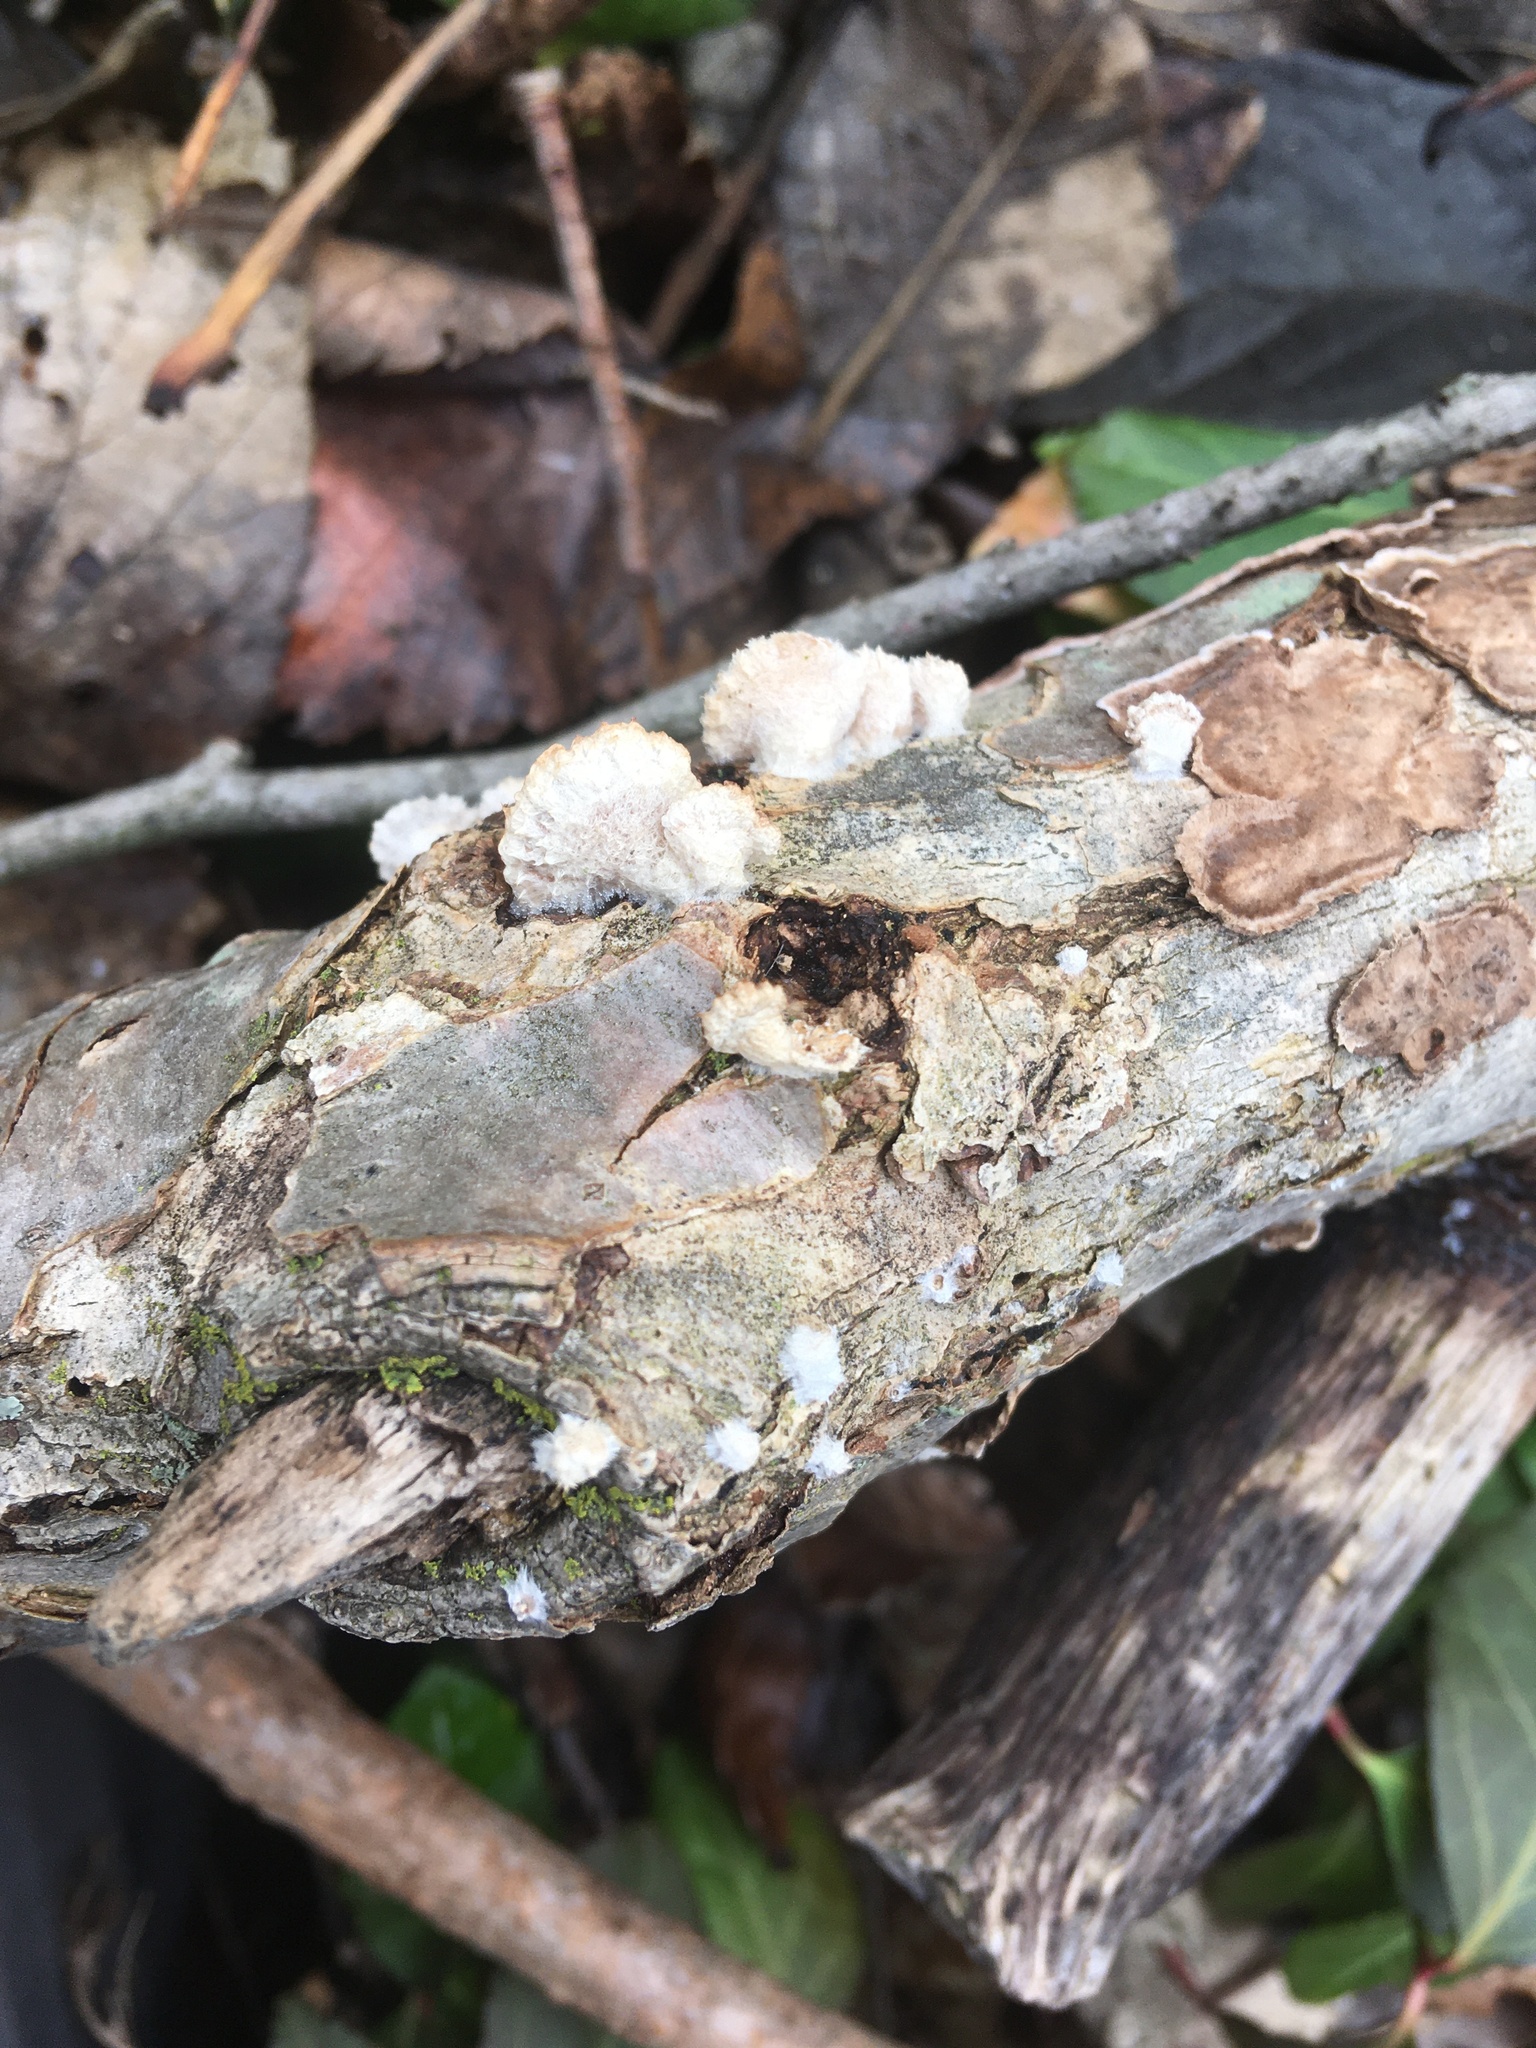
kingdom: Fungi
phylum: Basidiomycota
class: Agaricomycetes
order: Agaricales
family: Schizophyllaceae
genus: Schizophyllum
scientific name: Schizophyllum commune
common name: Common porecrust
